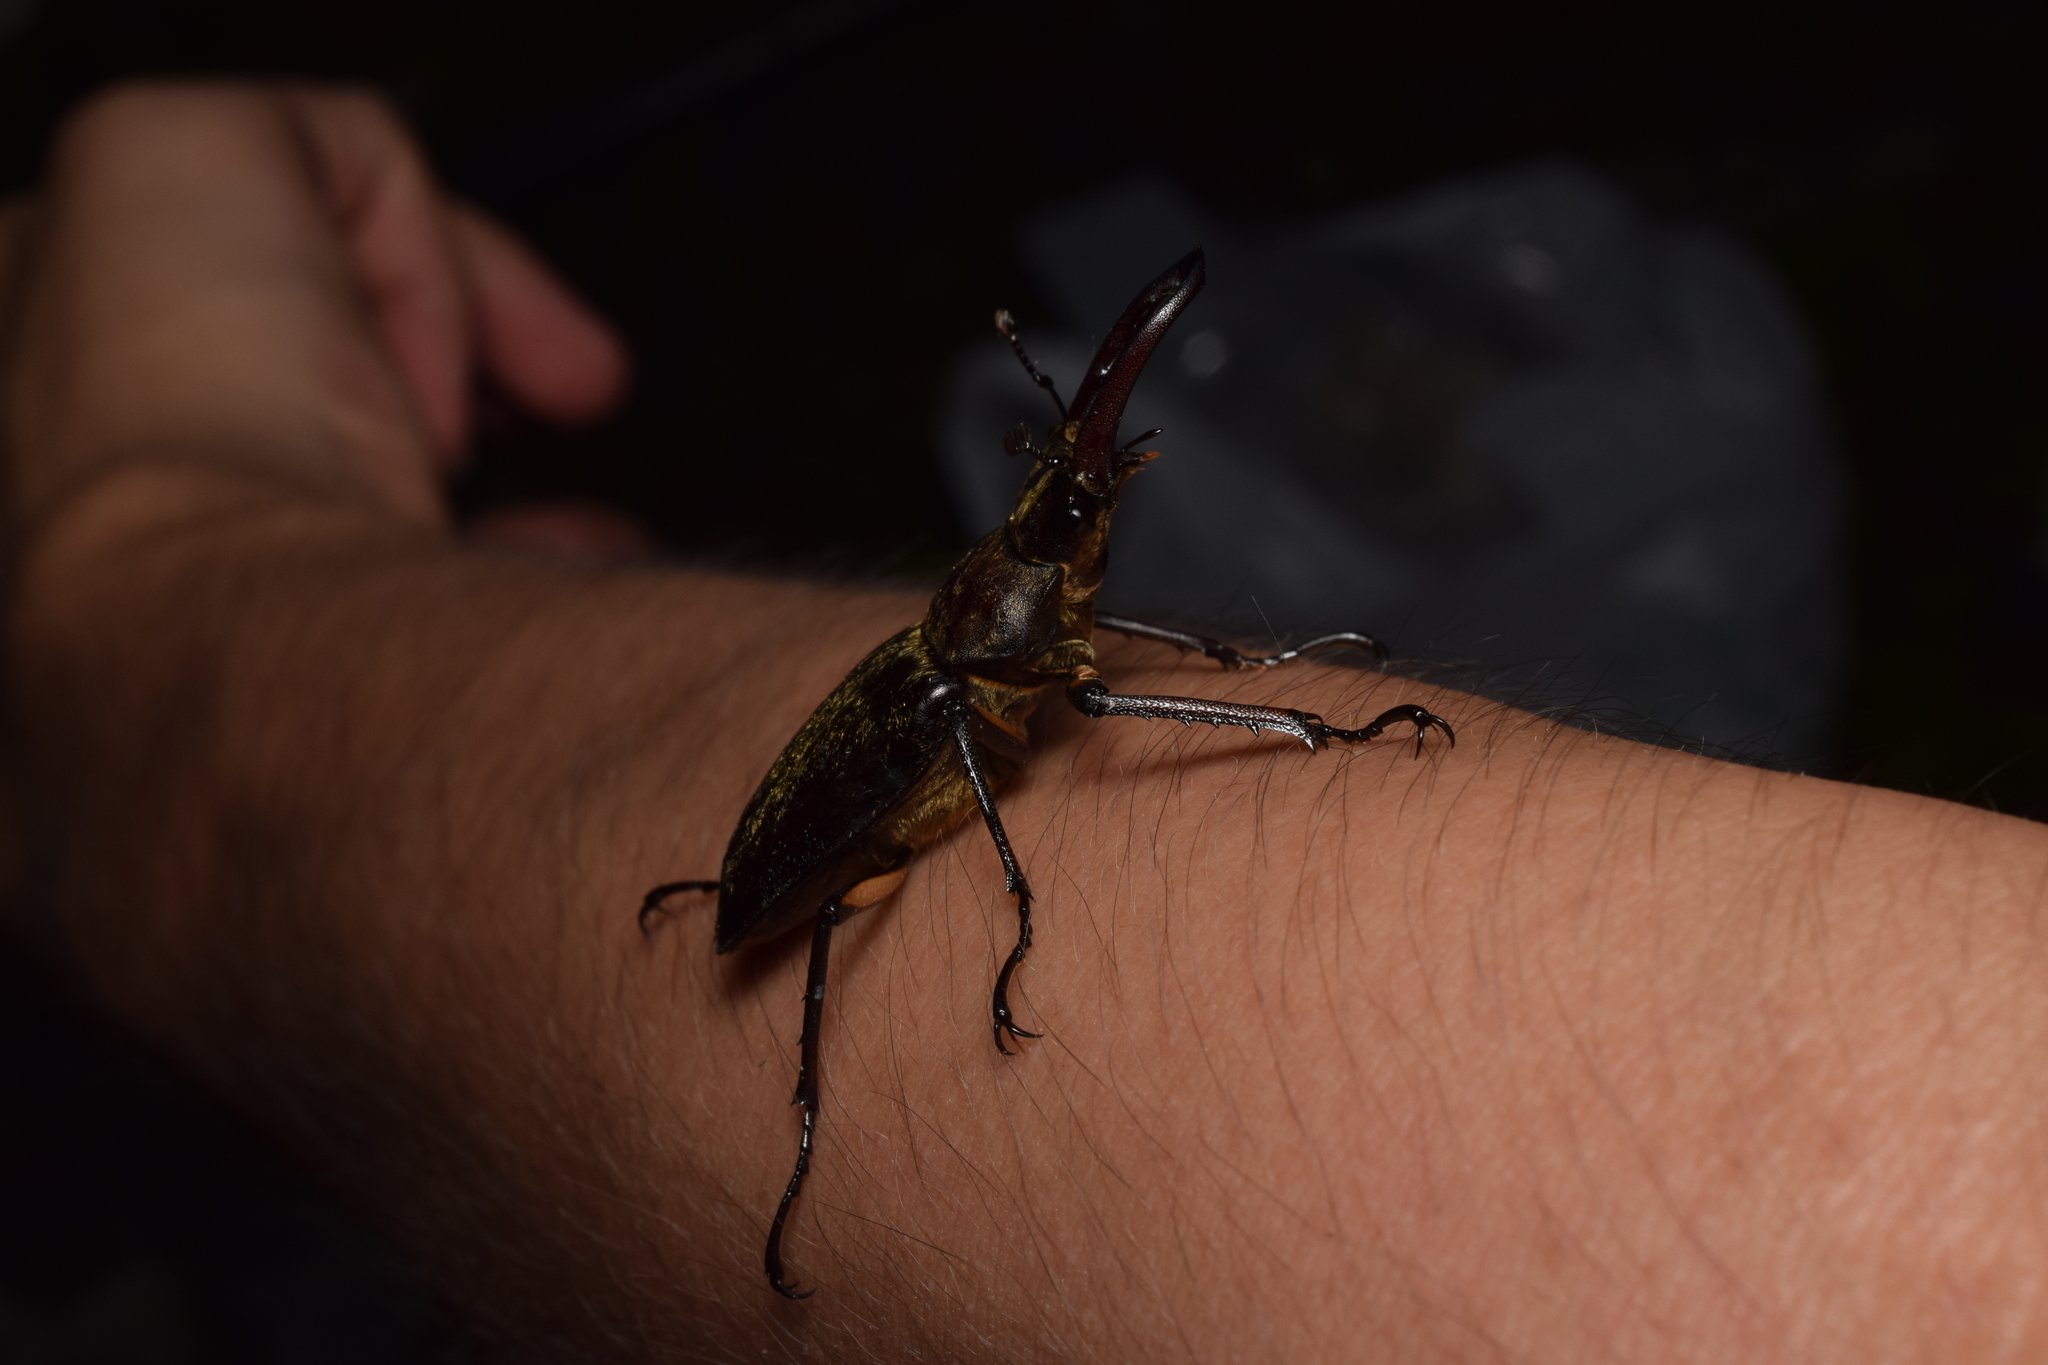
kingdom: Animalia
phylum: Arthropoda
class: Insecta
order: Coleoptera
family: Lucanidae
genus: Lucanus
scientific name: Lucanus maculifemoratus
